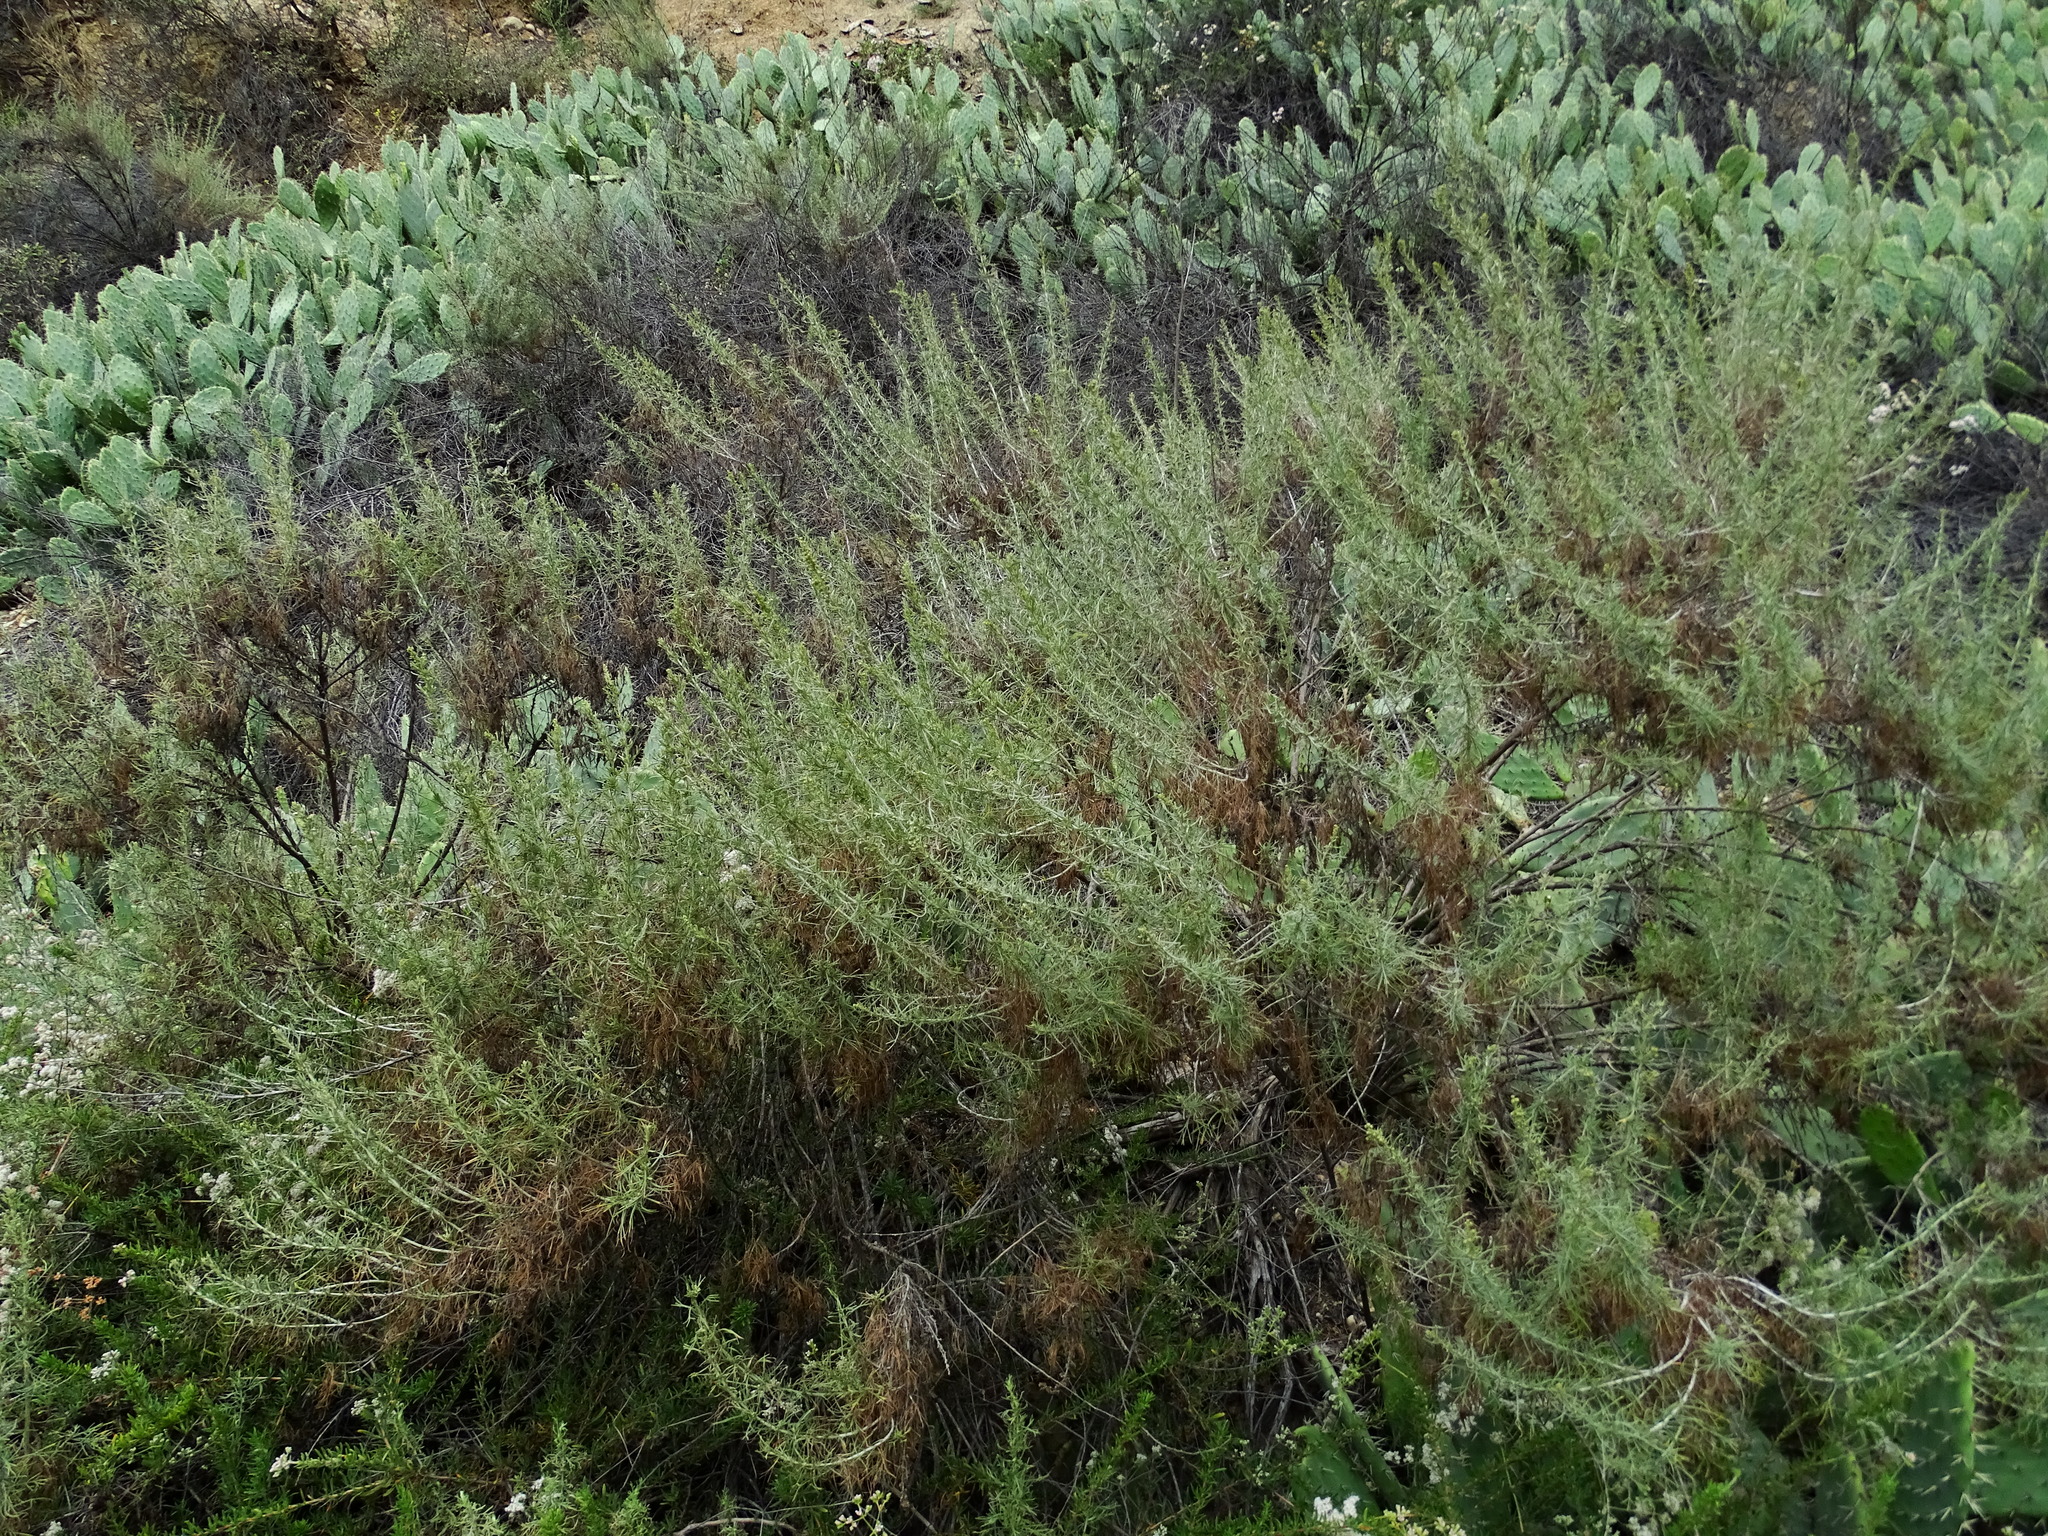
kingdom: Plantae
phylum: Tracheophyta
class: Magnoliopsida
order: Asterales
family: Asteraceae
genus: Artemisia
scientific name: Artemisia californica
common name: California sagebrush
